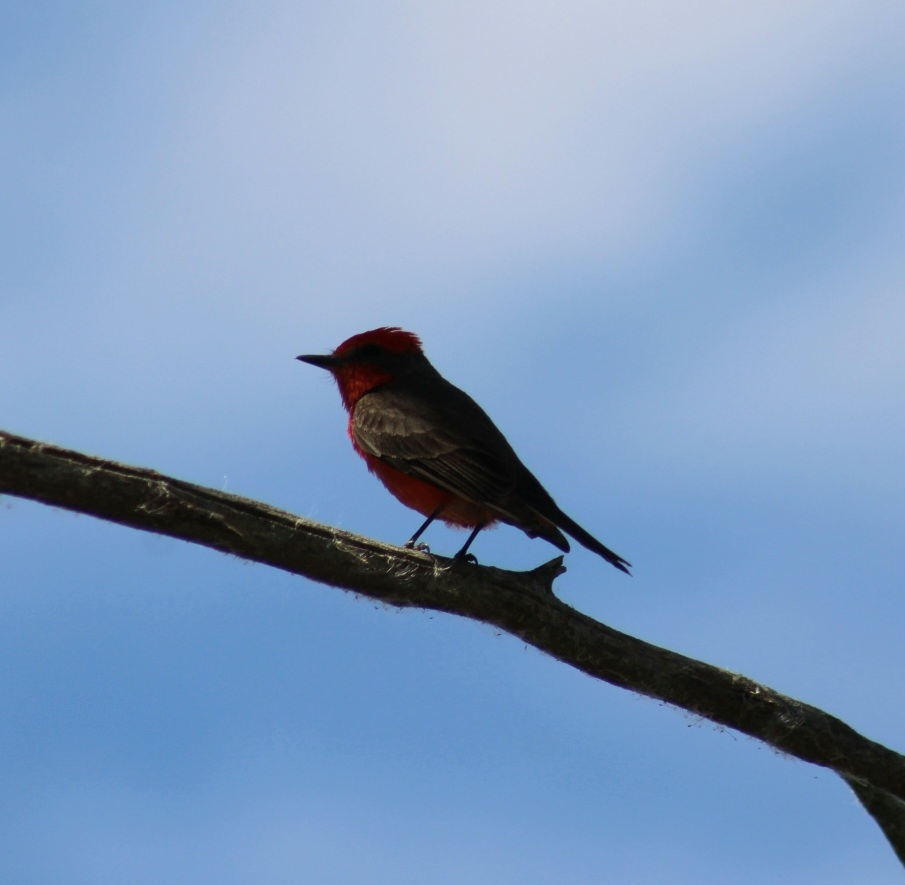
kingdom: Animalia
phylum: Chordata
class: Aves
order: Passeriformes
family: Tyrannidae
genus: Pyrocephalus
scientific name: Pyrocephalus rubinus
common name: Vermilion flycatcher
